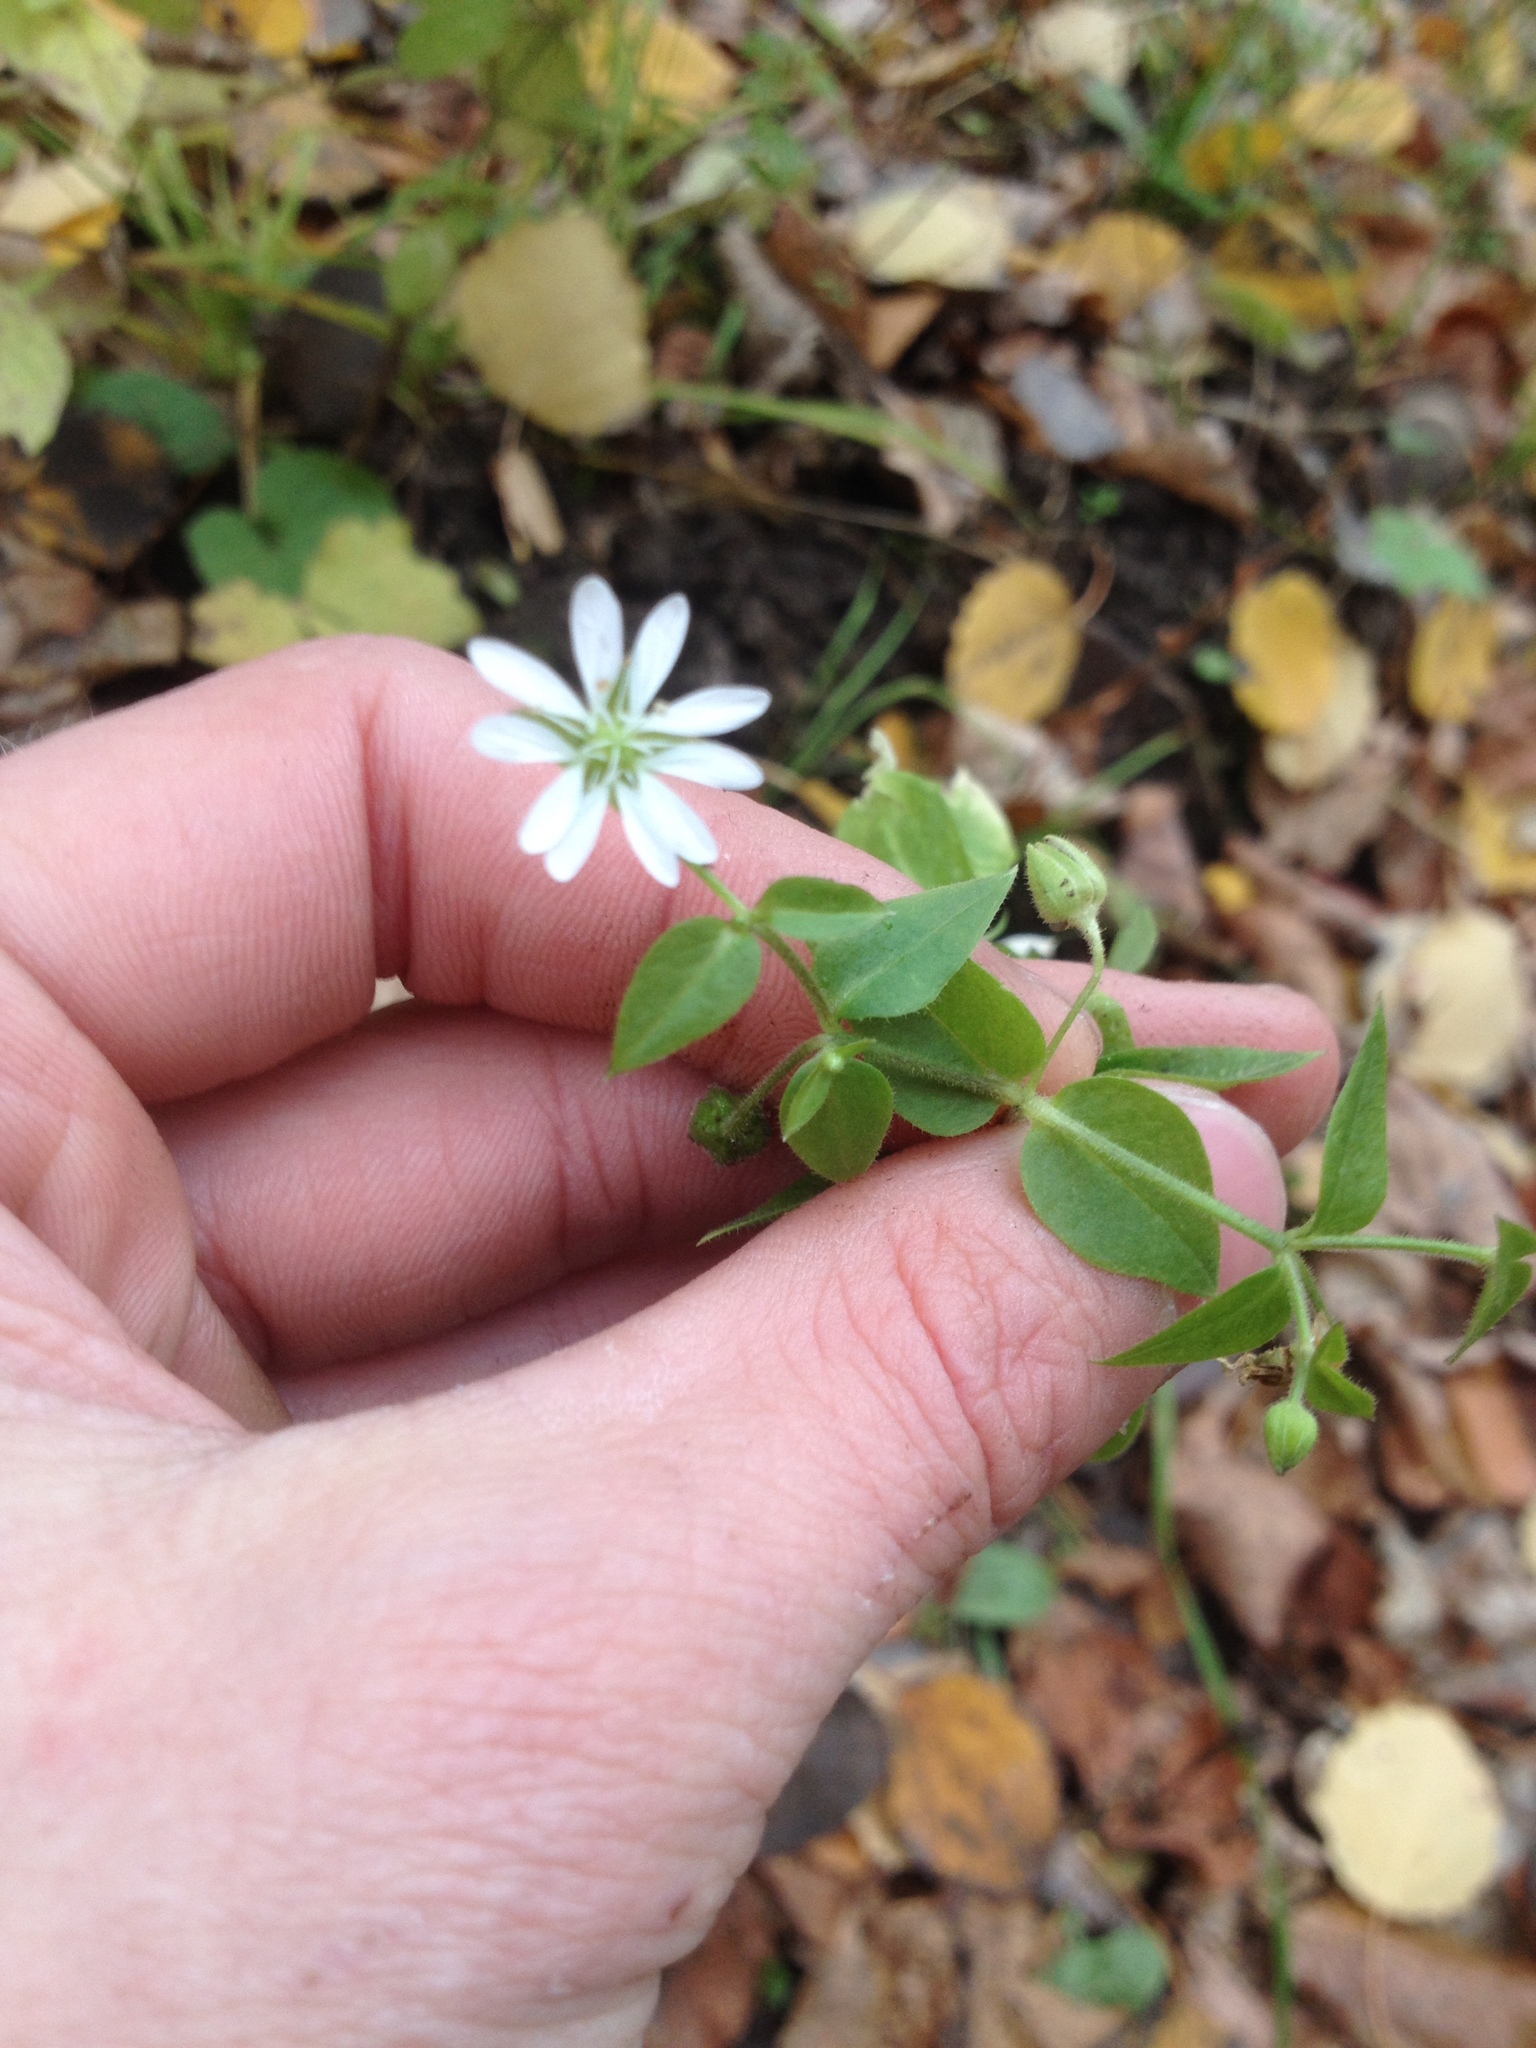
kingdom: Plantae
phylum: Tracheophyta
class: Magnoliopsida
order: Caryophyllales
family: Caryophyllaceae
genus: Stellaria
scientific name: Stellaria aquatica
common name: Water chickweed
